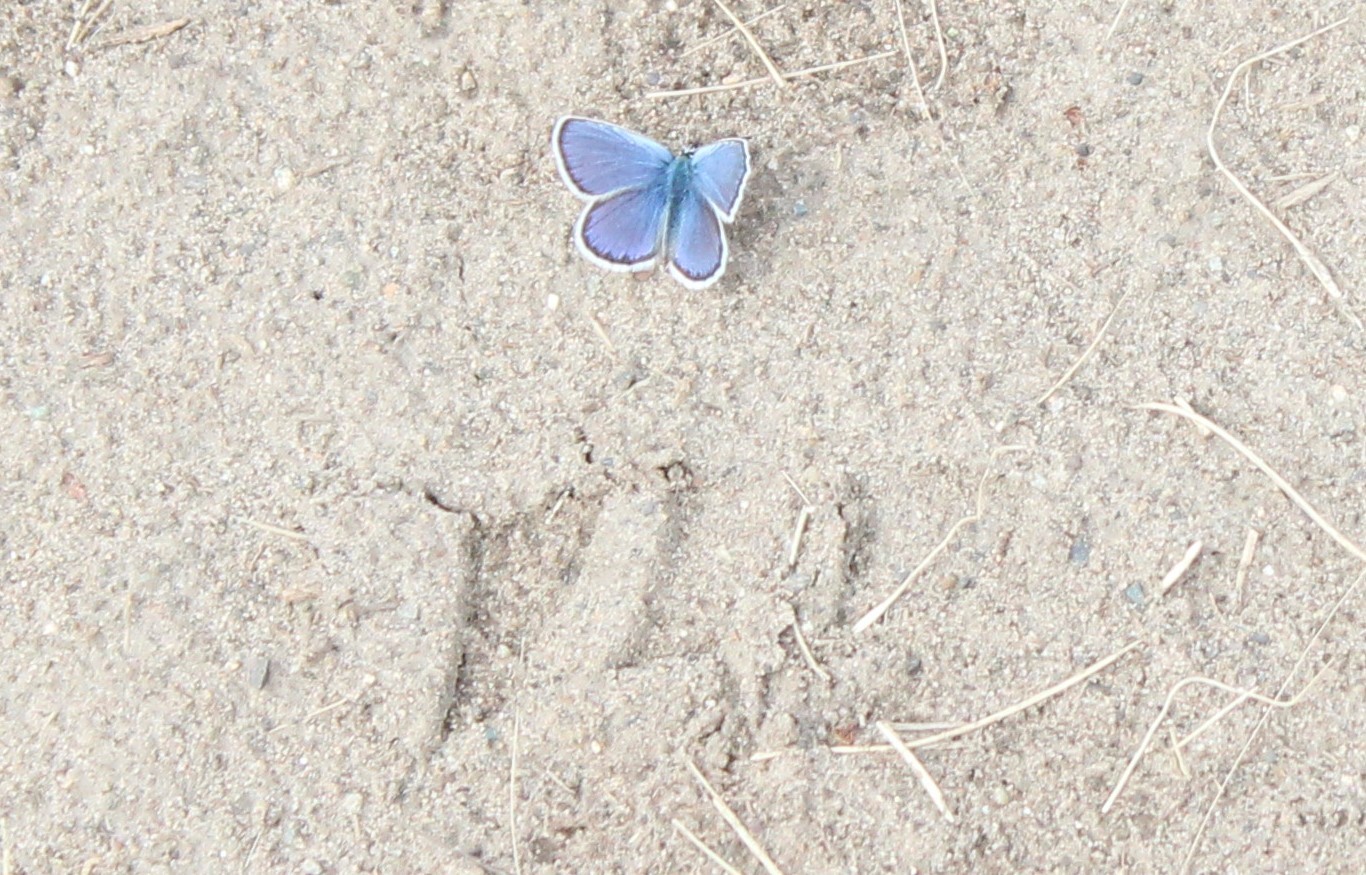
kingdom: Animalia
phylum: Arthropoda
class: Insecta
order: Lepidoptera
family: Lycaenidae
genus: Lycaeides
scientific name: Lycaeides idas
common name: Northern blue
